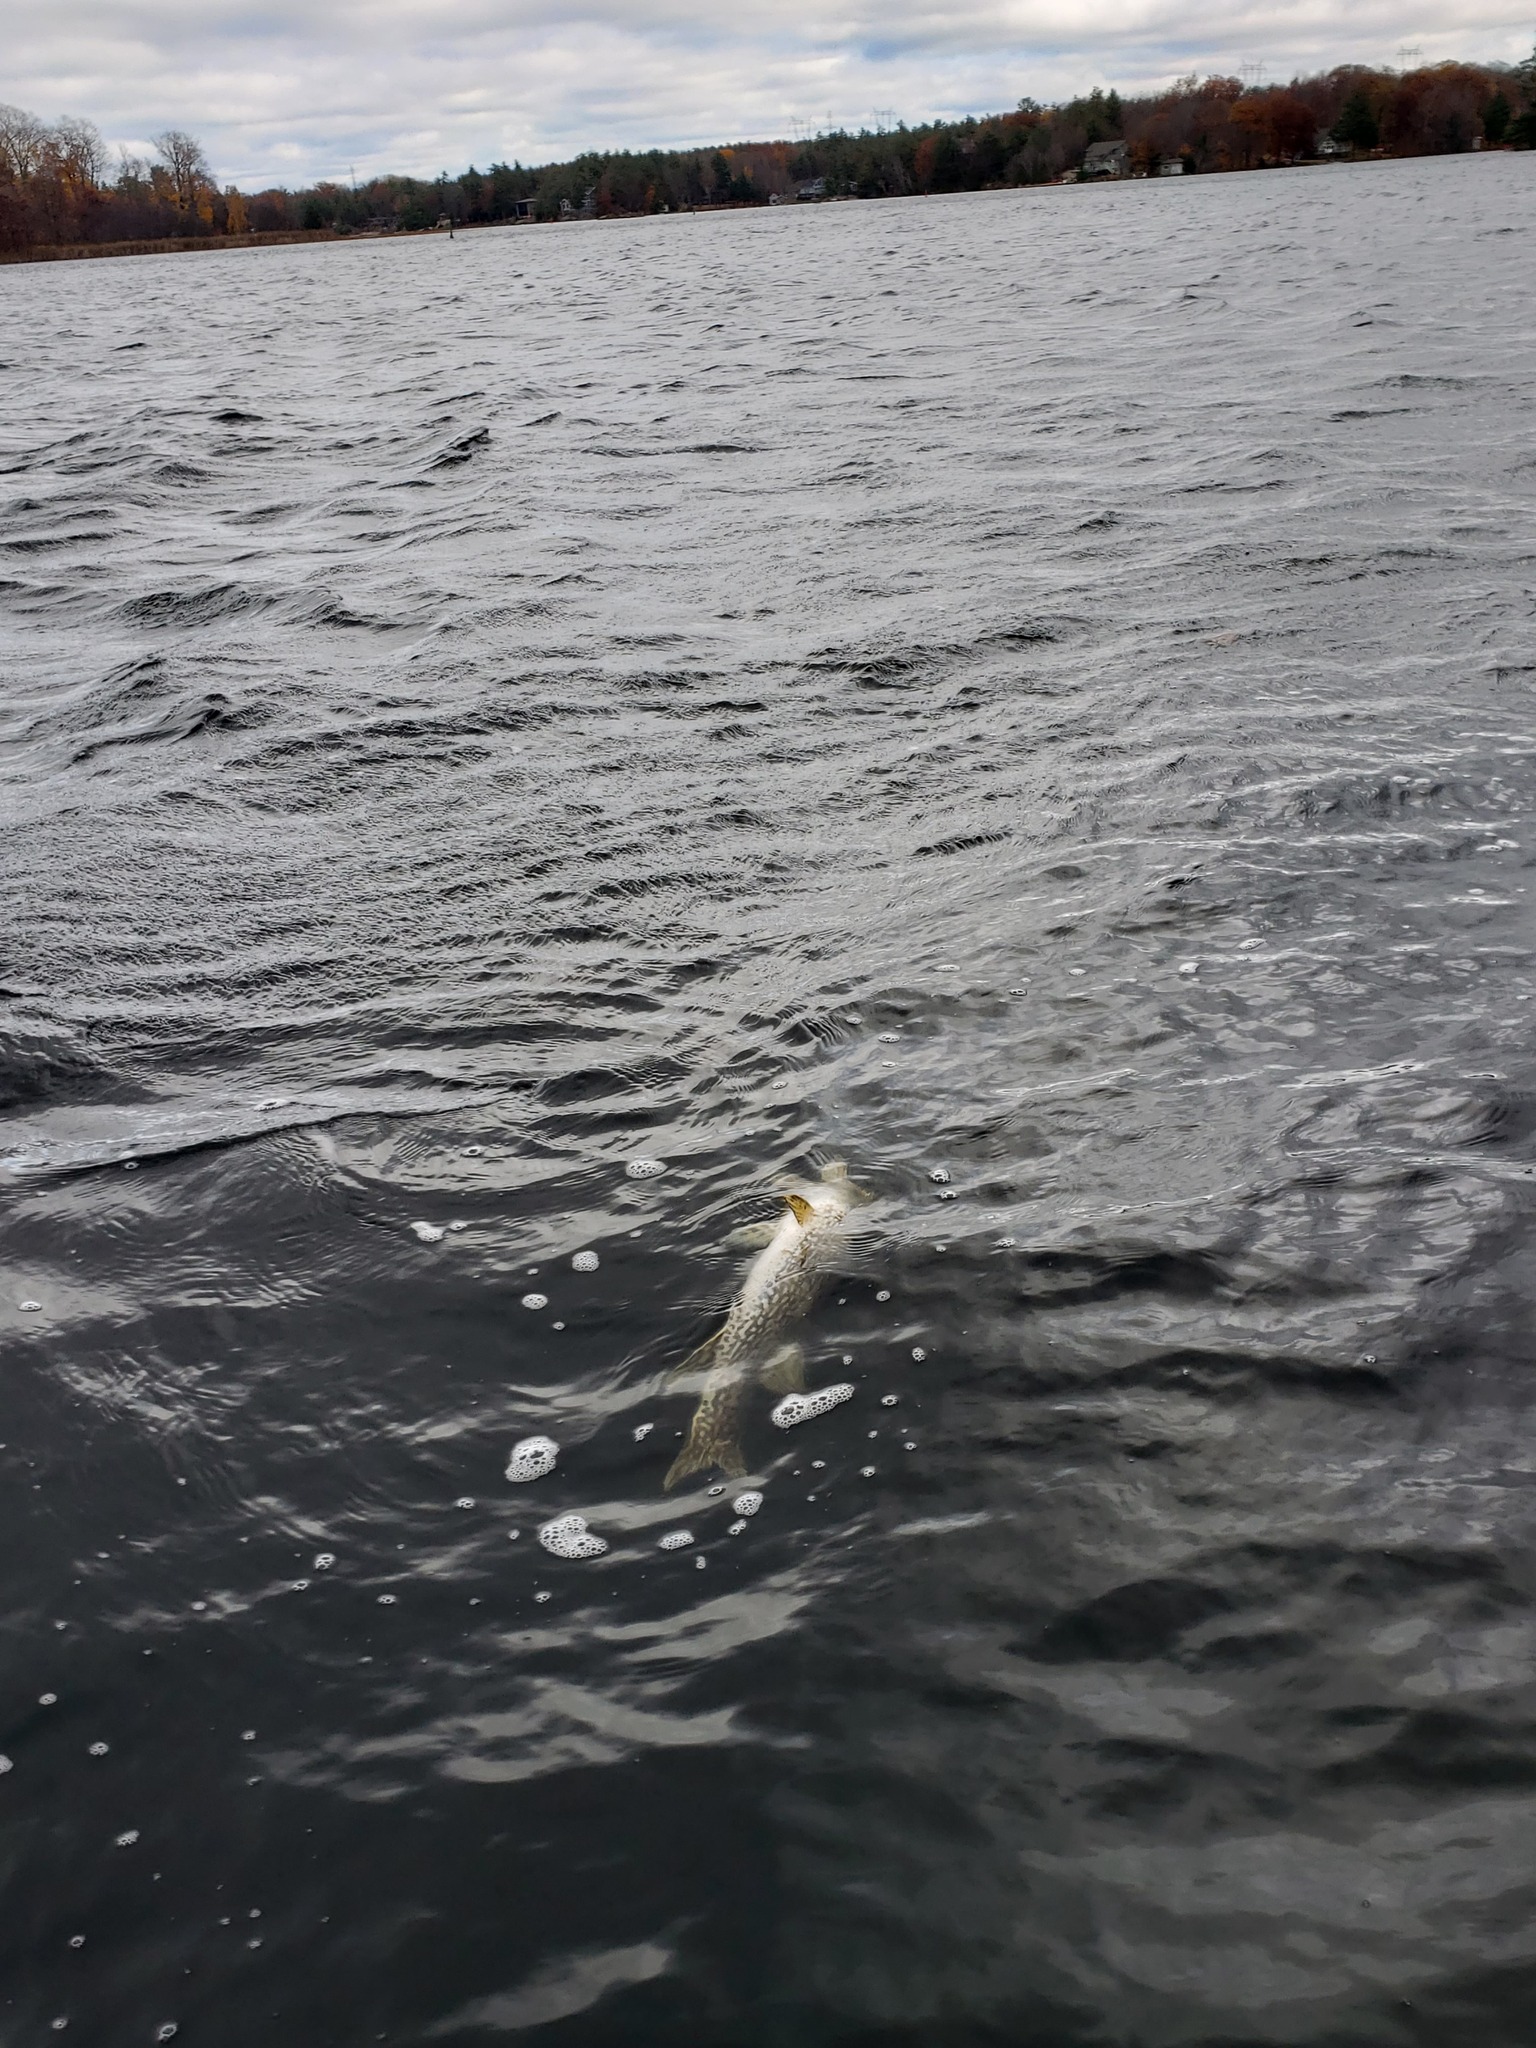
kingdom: Animalia
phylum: Chordata
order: Esociformes
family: Esocidae
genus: Esox
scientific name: Esox lucius
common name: Northern pike
